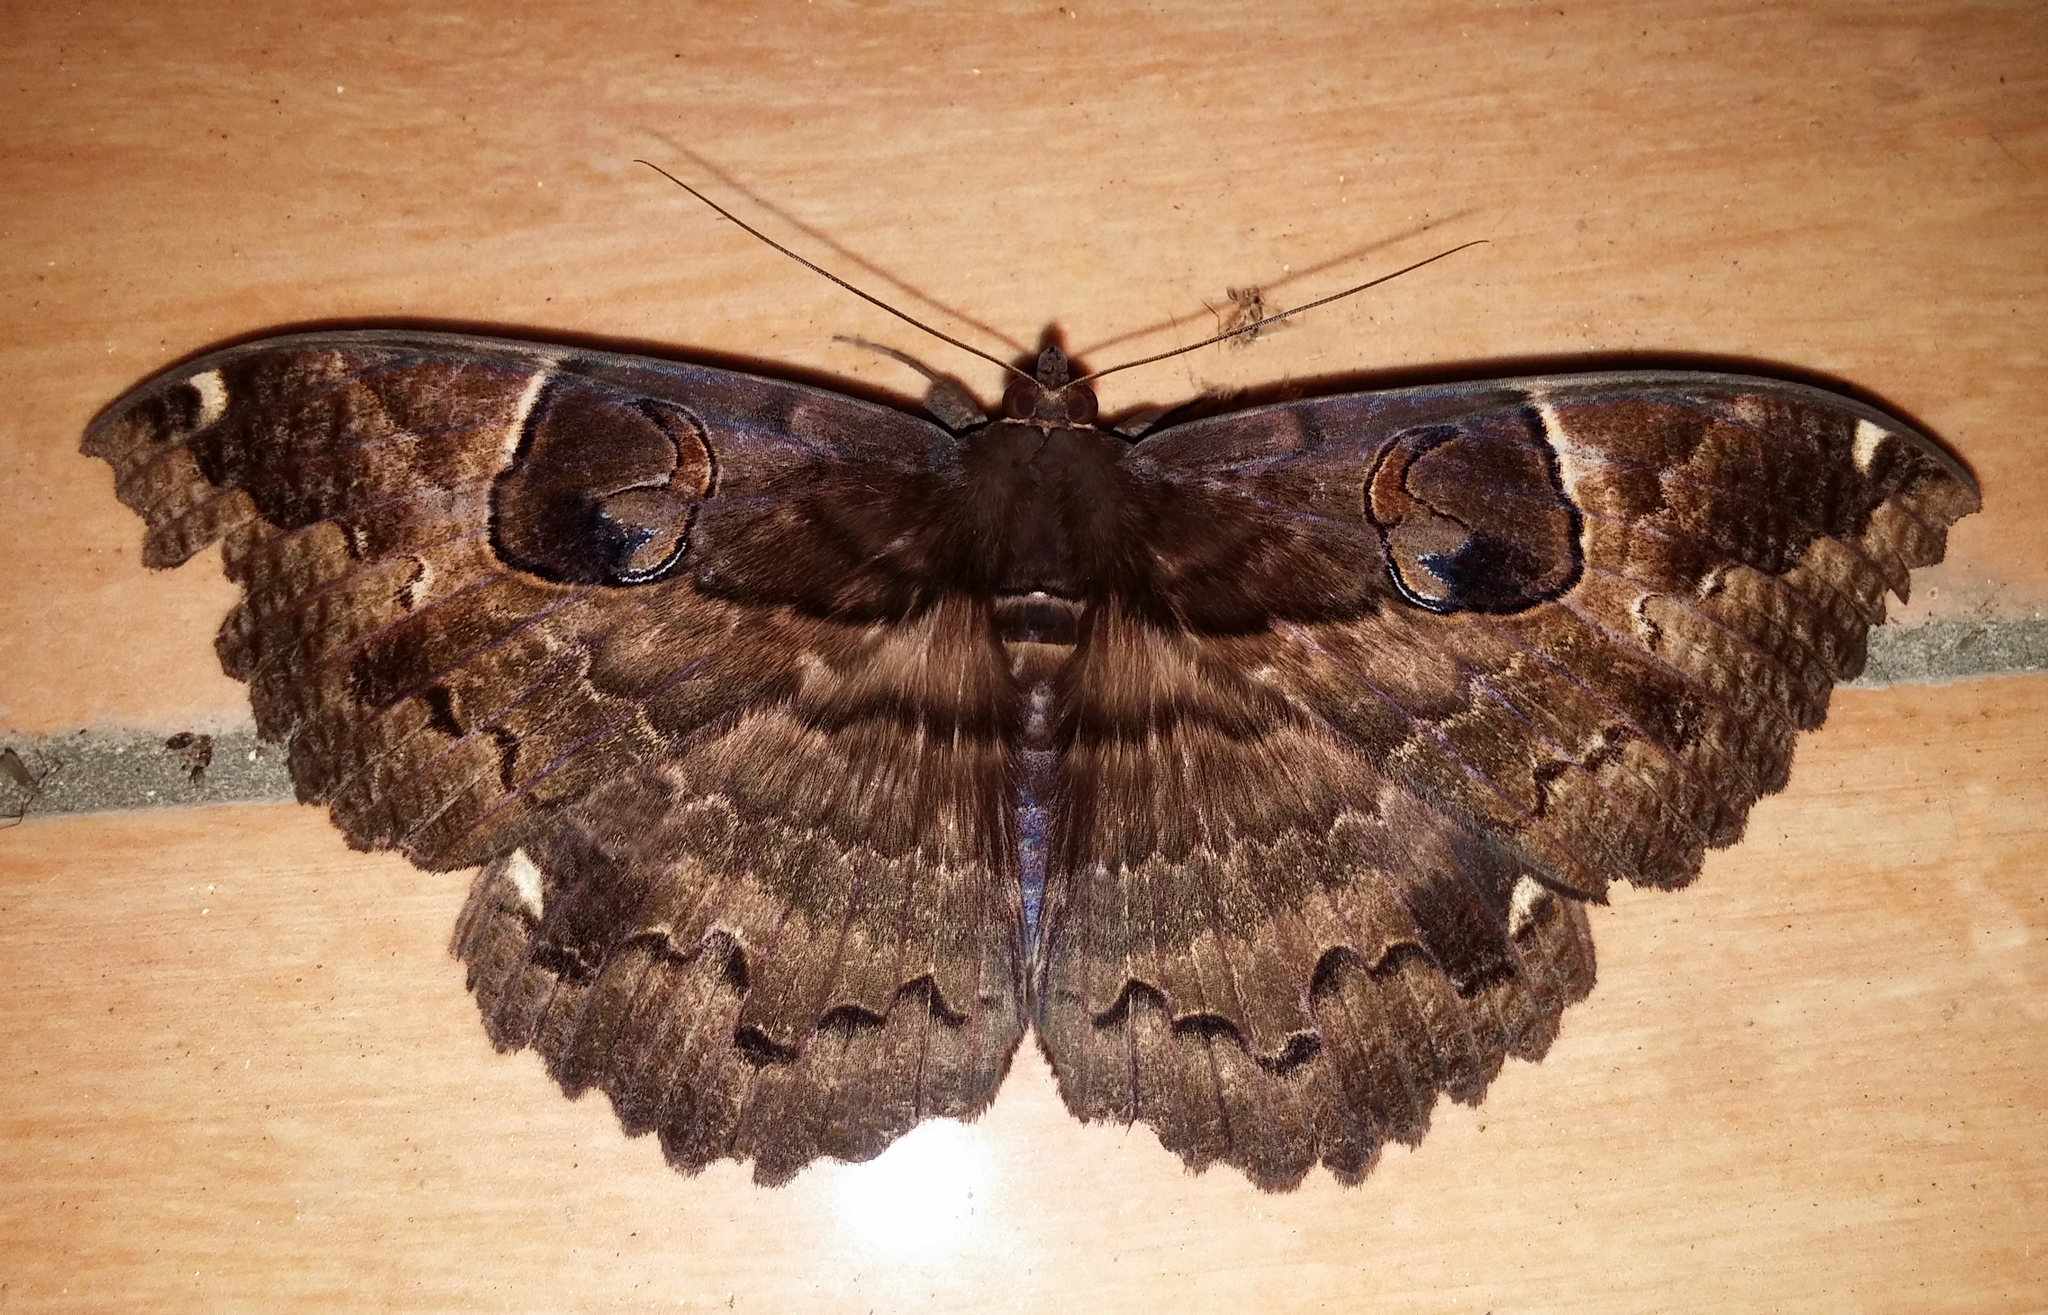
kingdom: Animalia
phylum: Arthropoda
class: Insecta
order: Lepidoptera
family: Erebidae
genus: Erebus
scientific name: Erebus crepuscularis
